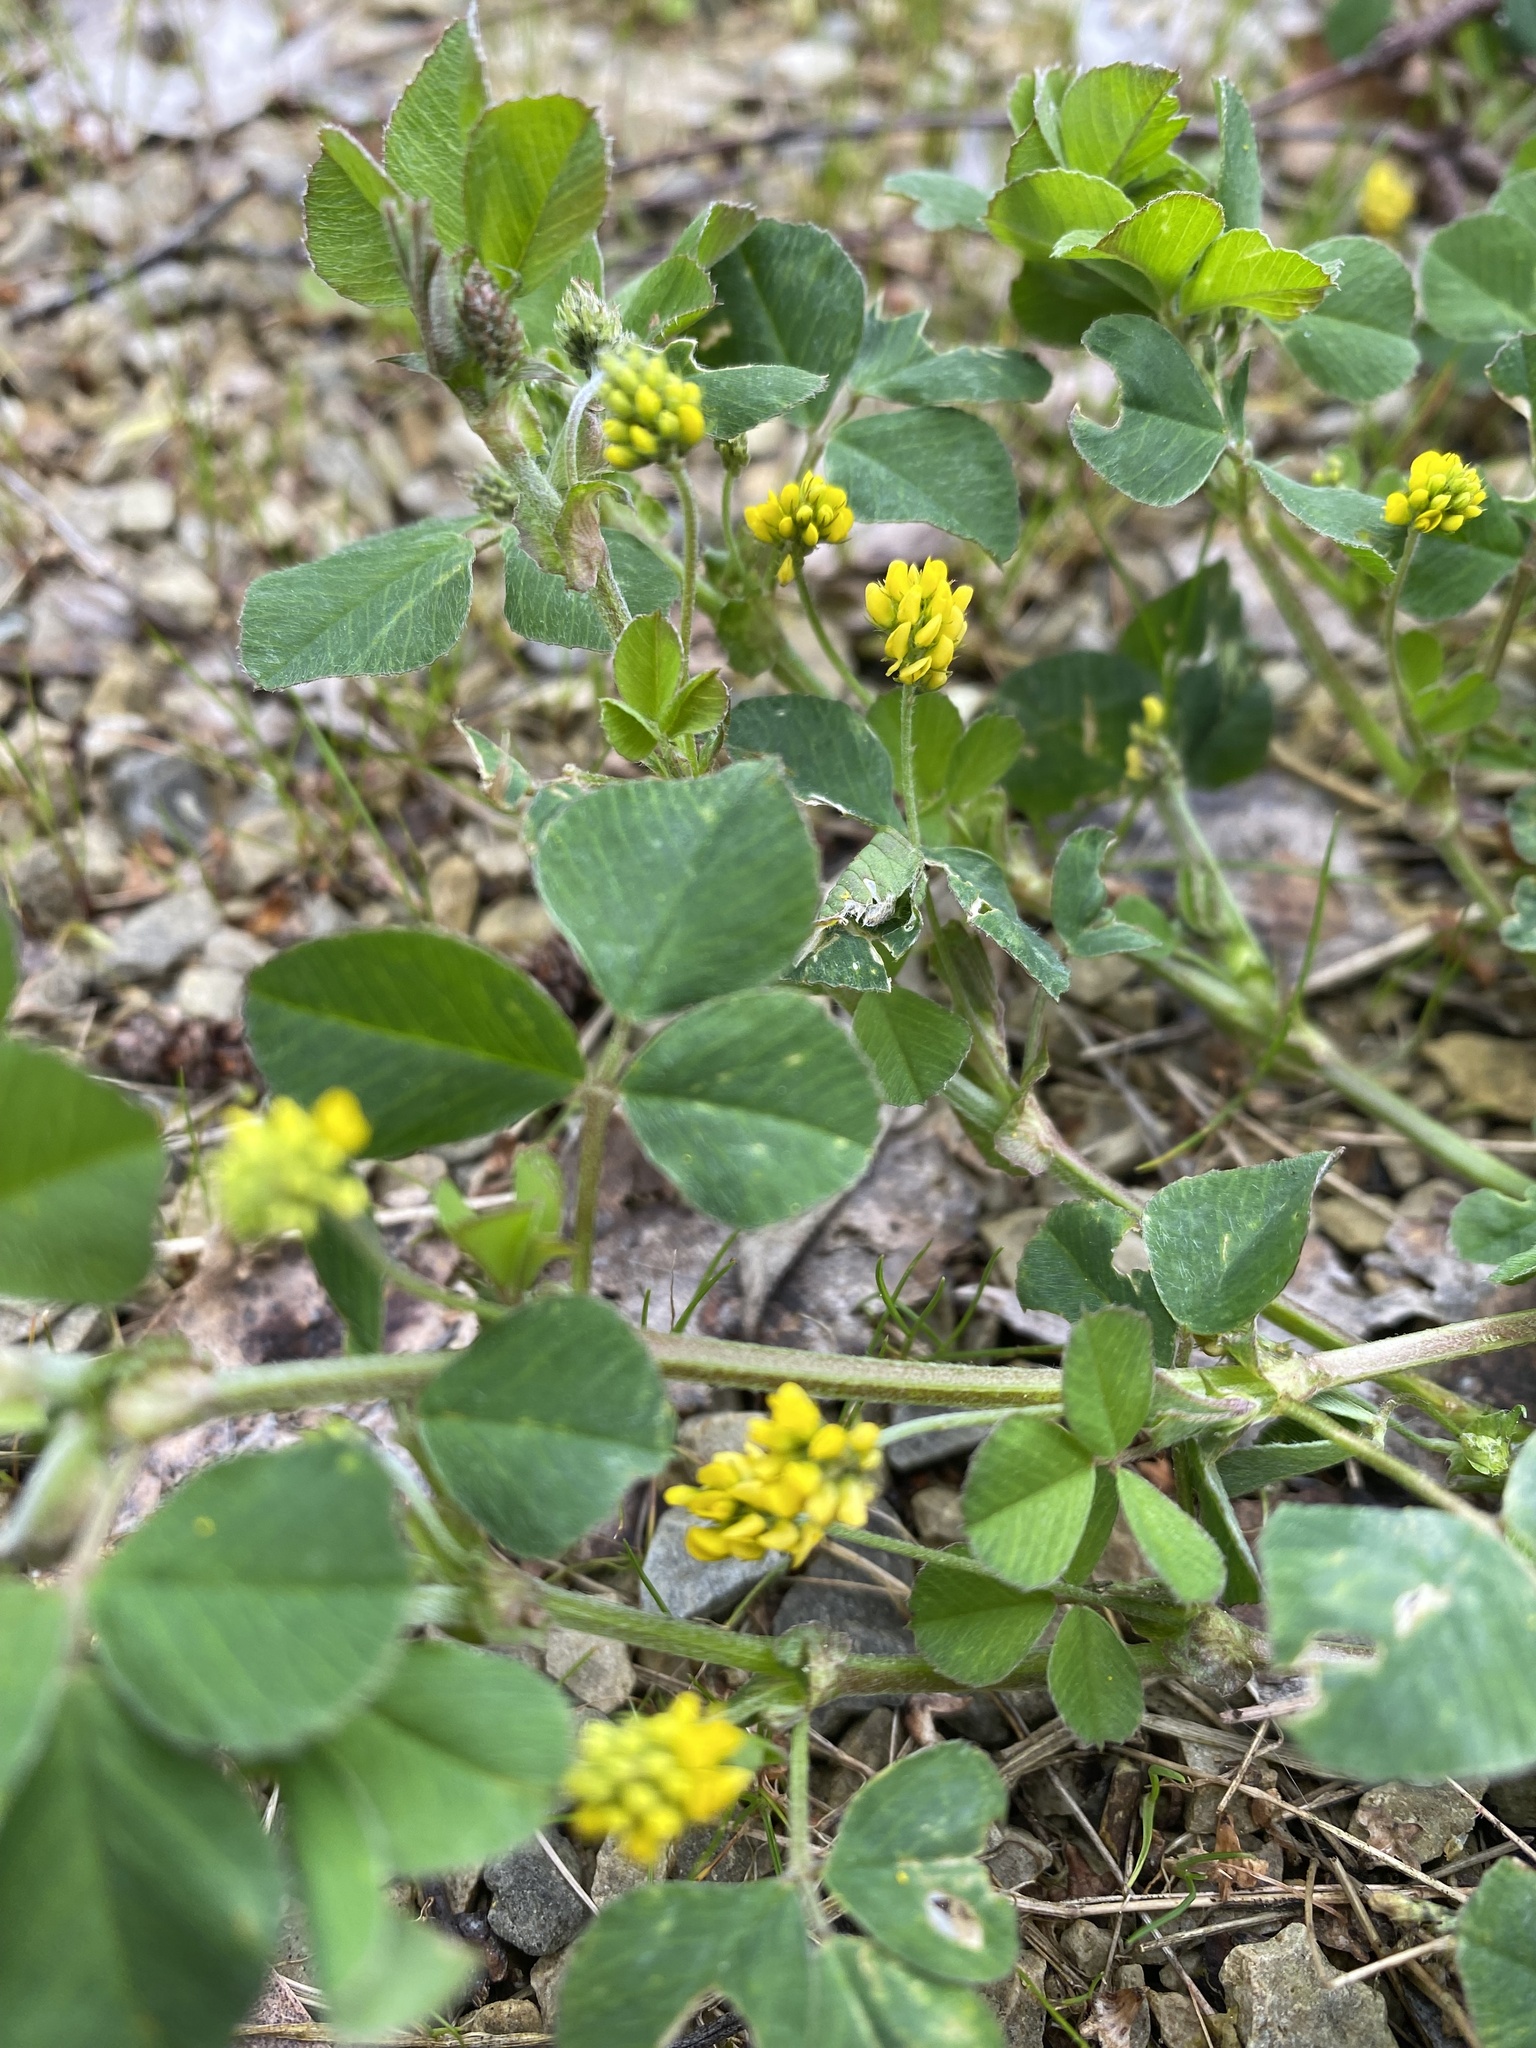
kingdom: Plantae
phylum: Tracheophyta
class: Magnoliopsida
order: Fabales
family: Fabaceae
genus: Medicago
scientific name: Medicago lupulina
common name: Black medick
